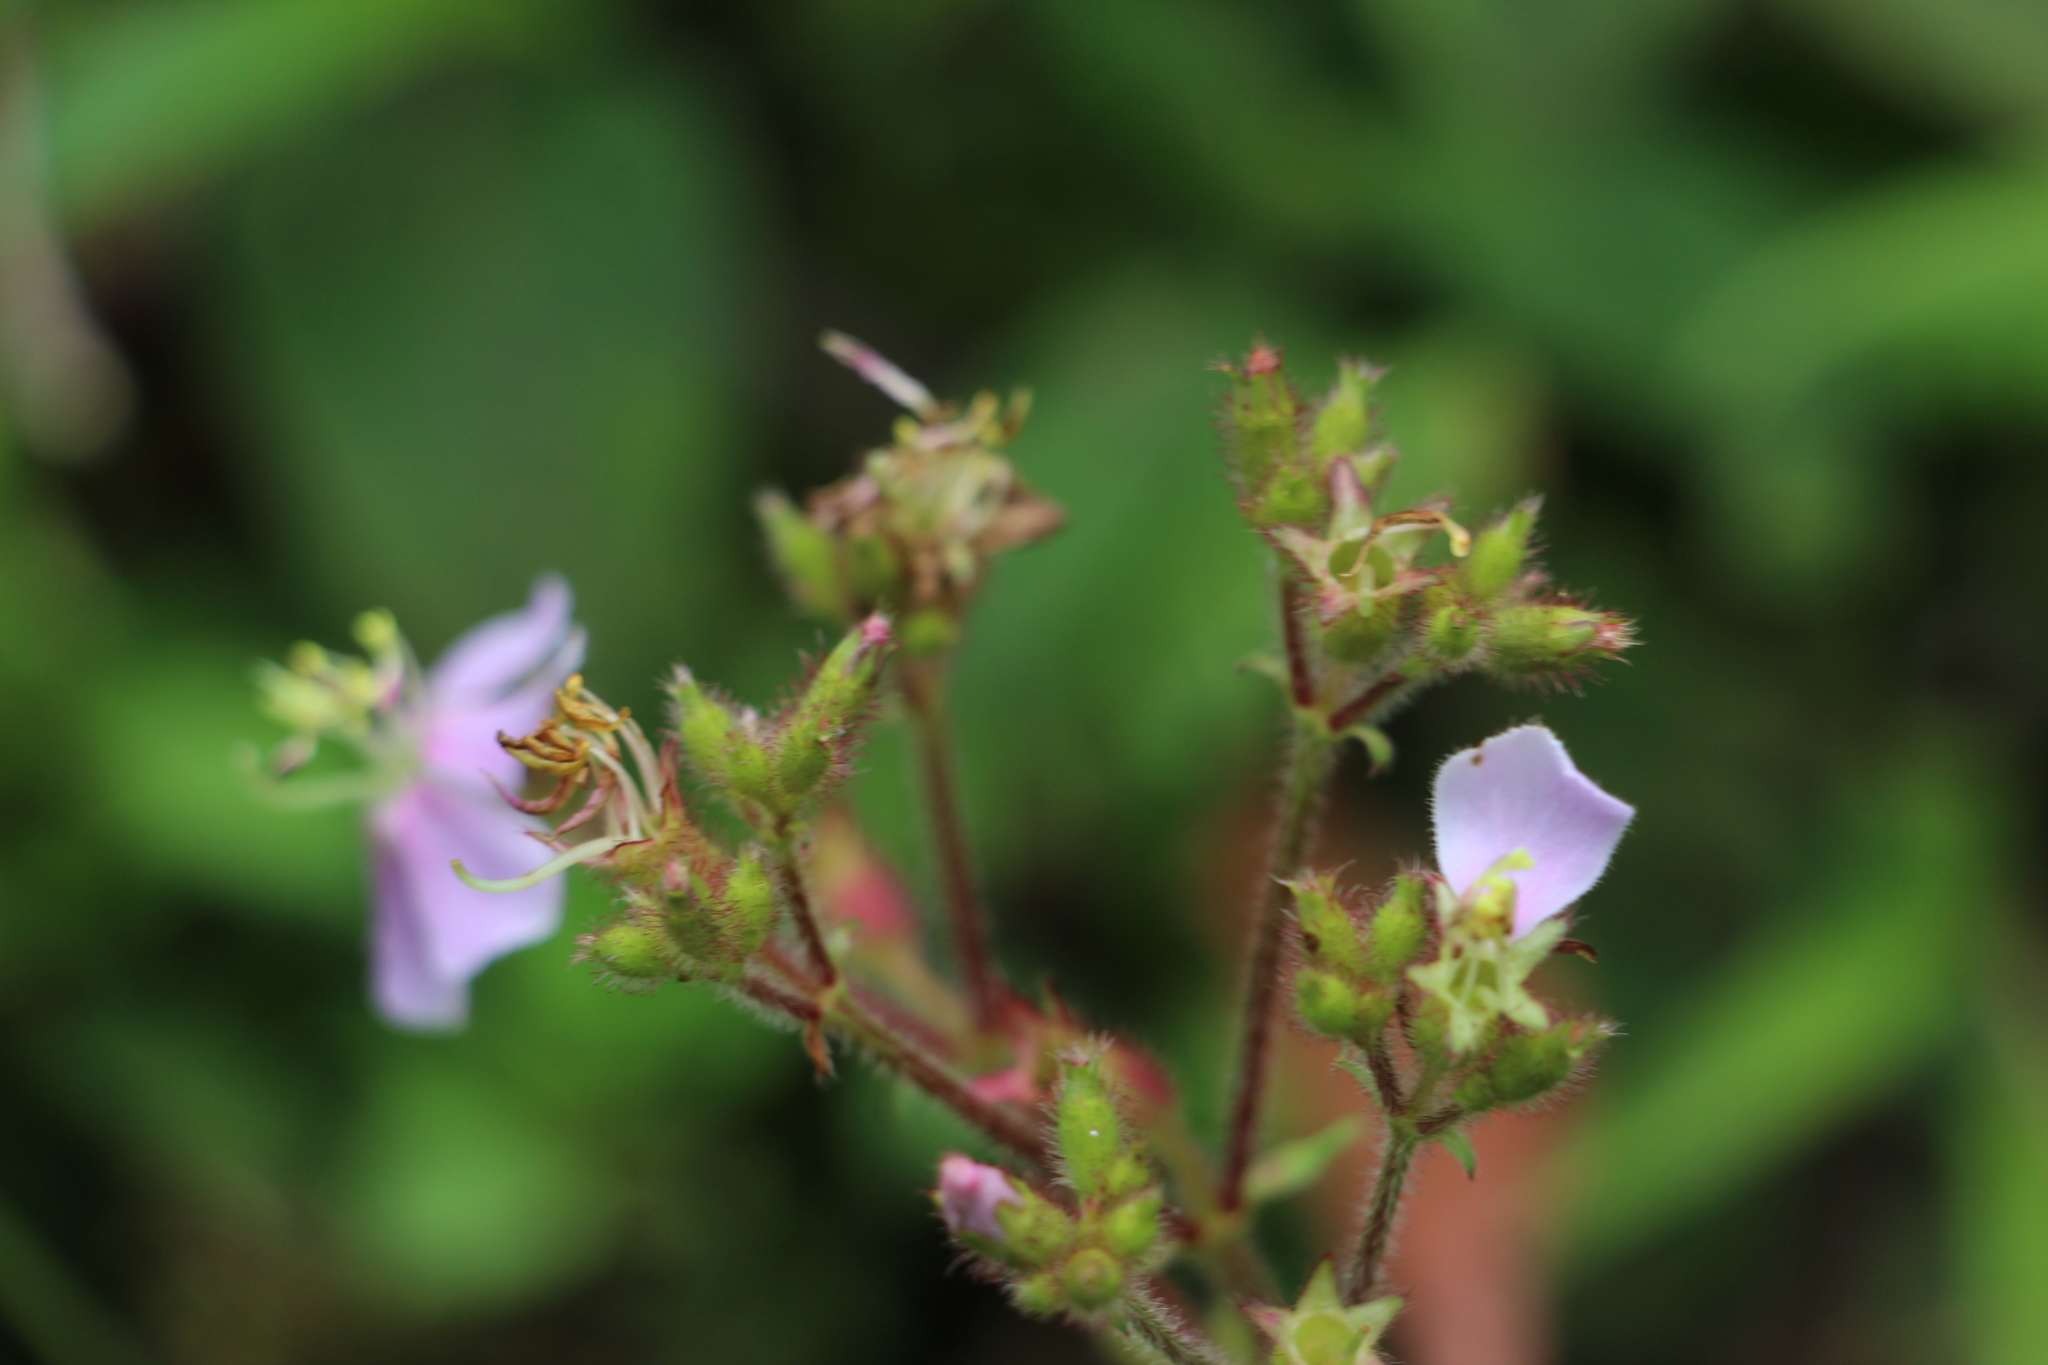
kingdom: Plantae
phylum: Tracheophyta
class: Magnoliopsida
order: Myrtales
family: Melastomataceae
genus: Chaetogastra
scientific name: Chaetogastra gracilis
